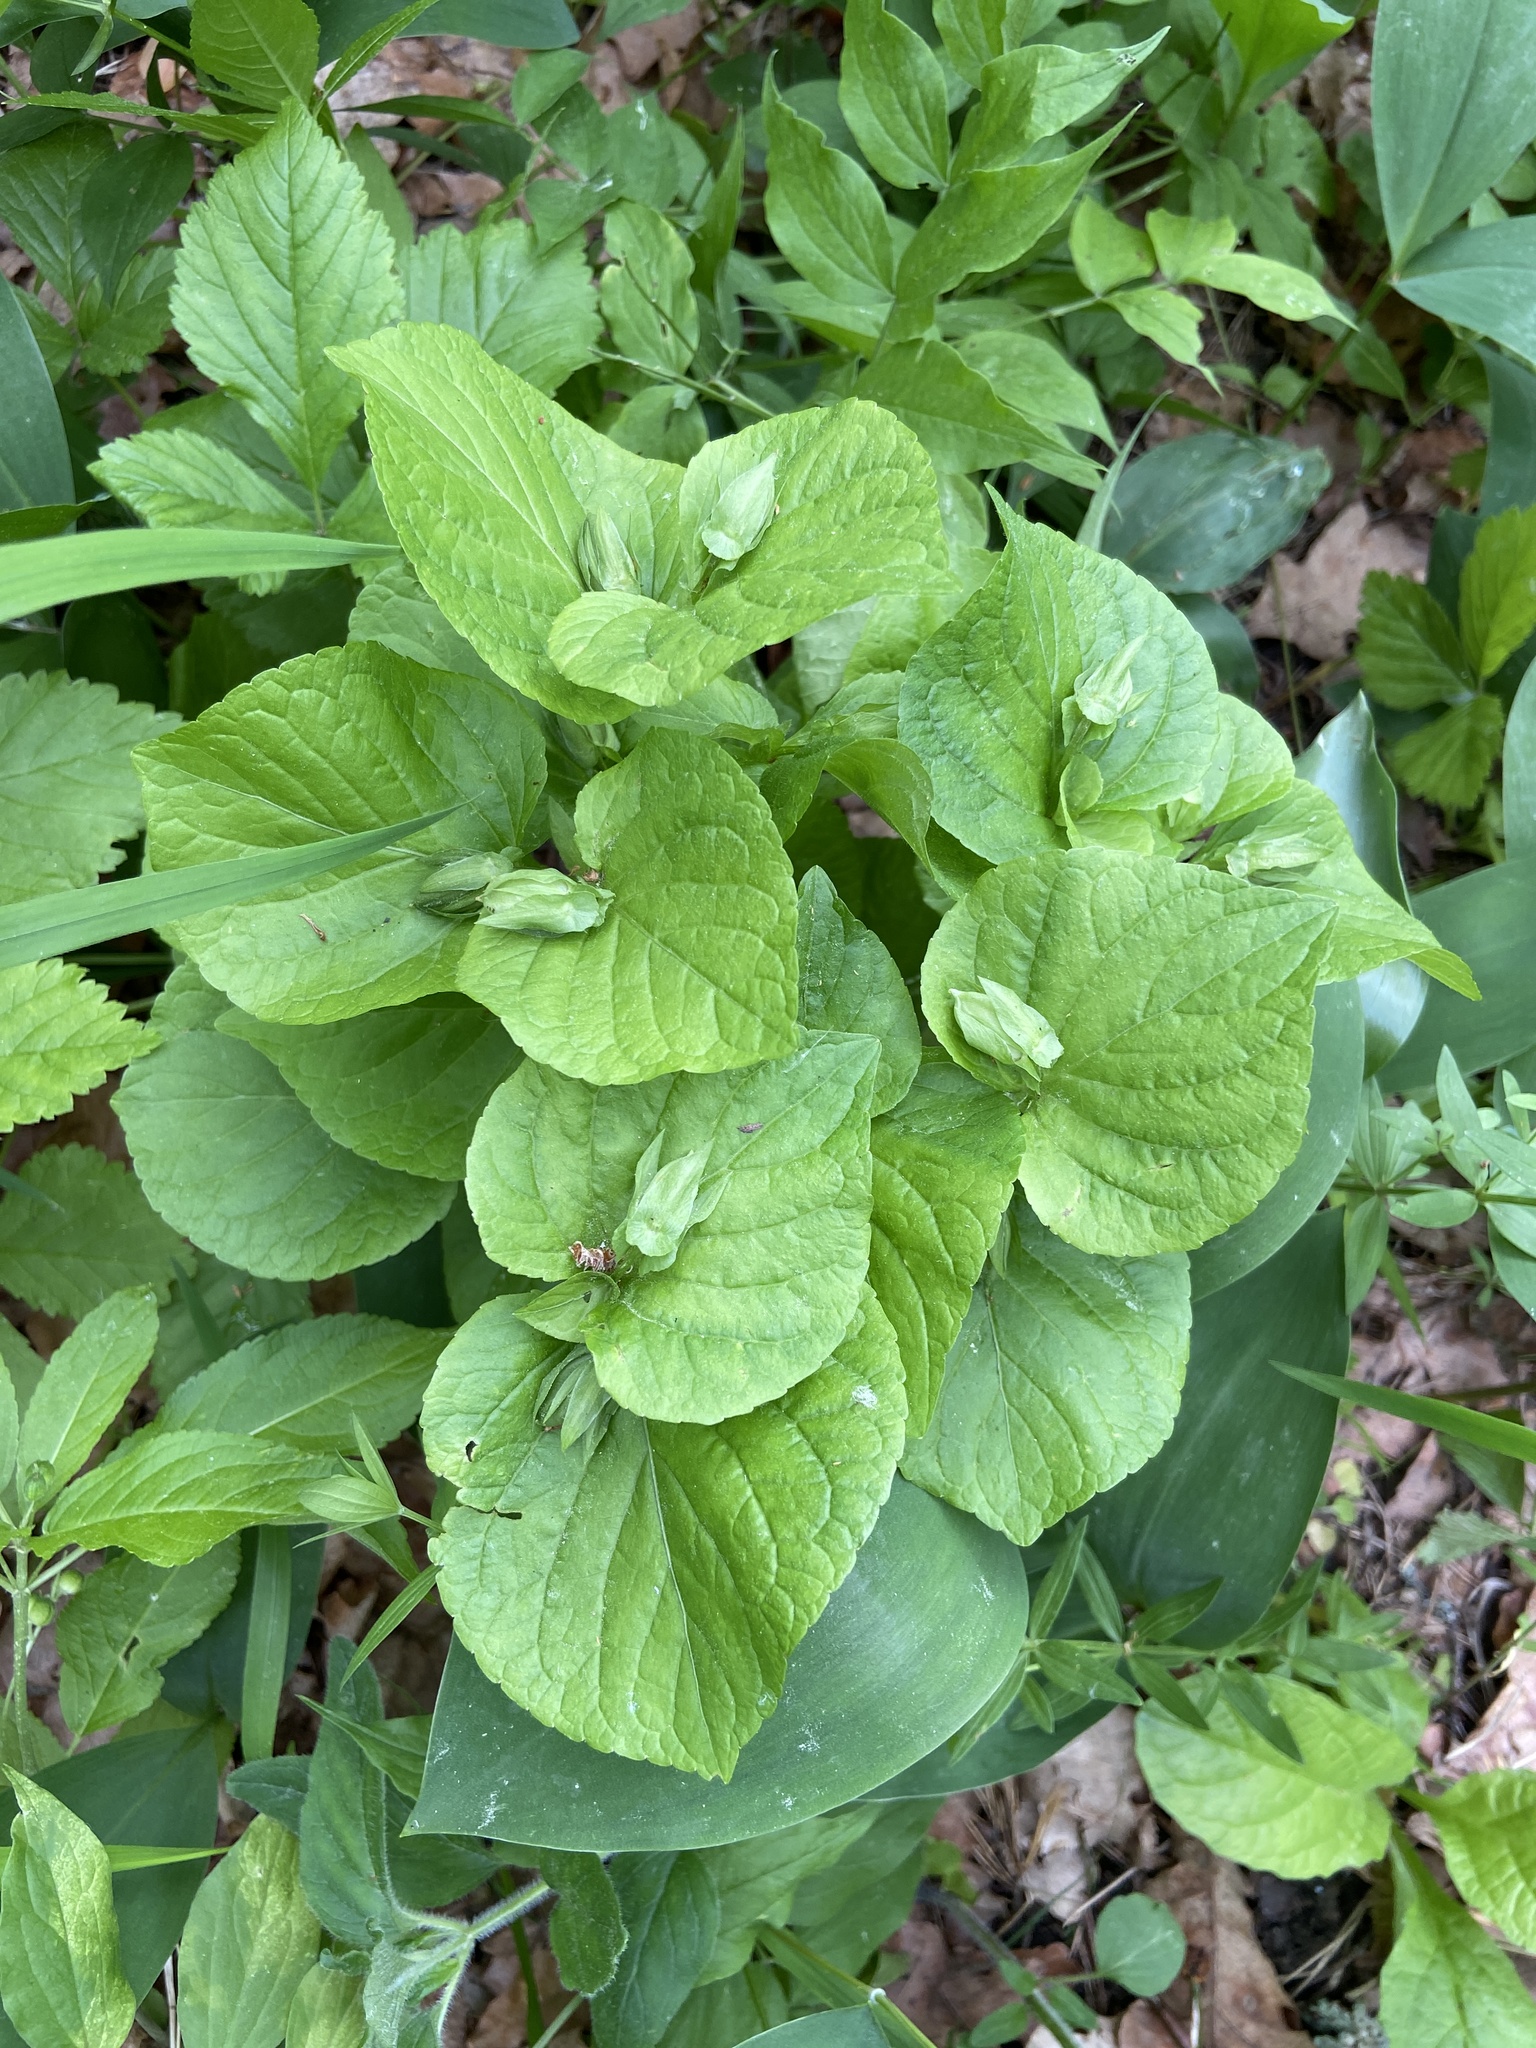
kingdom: Plantae
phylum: Tracheophyta
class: Magnoliopsida
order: Malpighiales
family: Violaceae
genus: Viola
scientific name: Viola mirabilis
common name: Wonder violet
